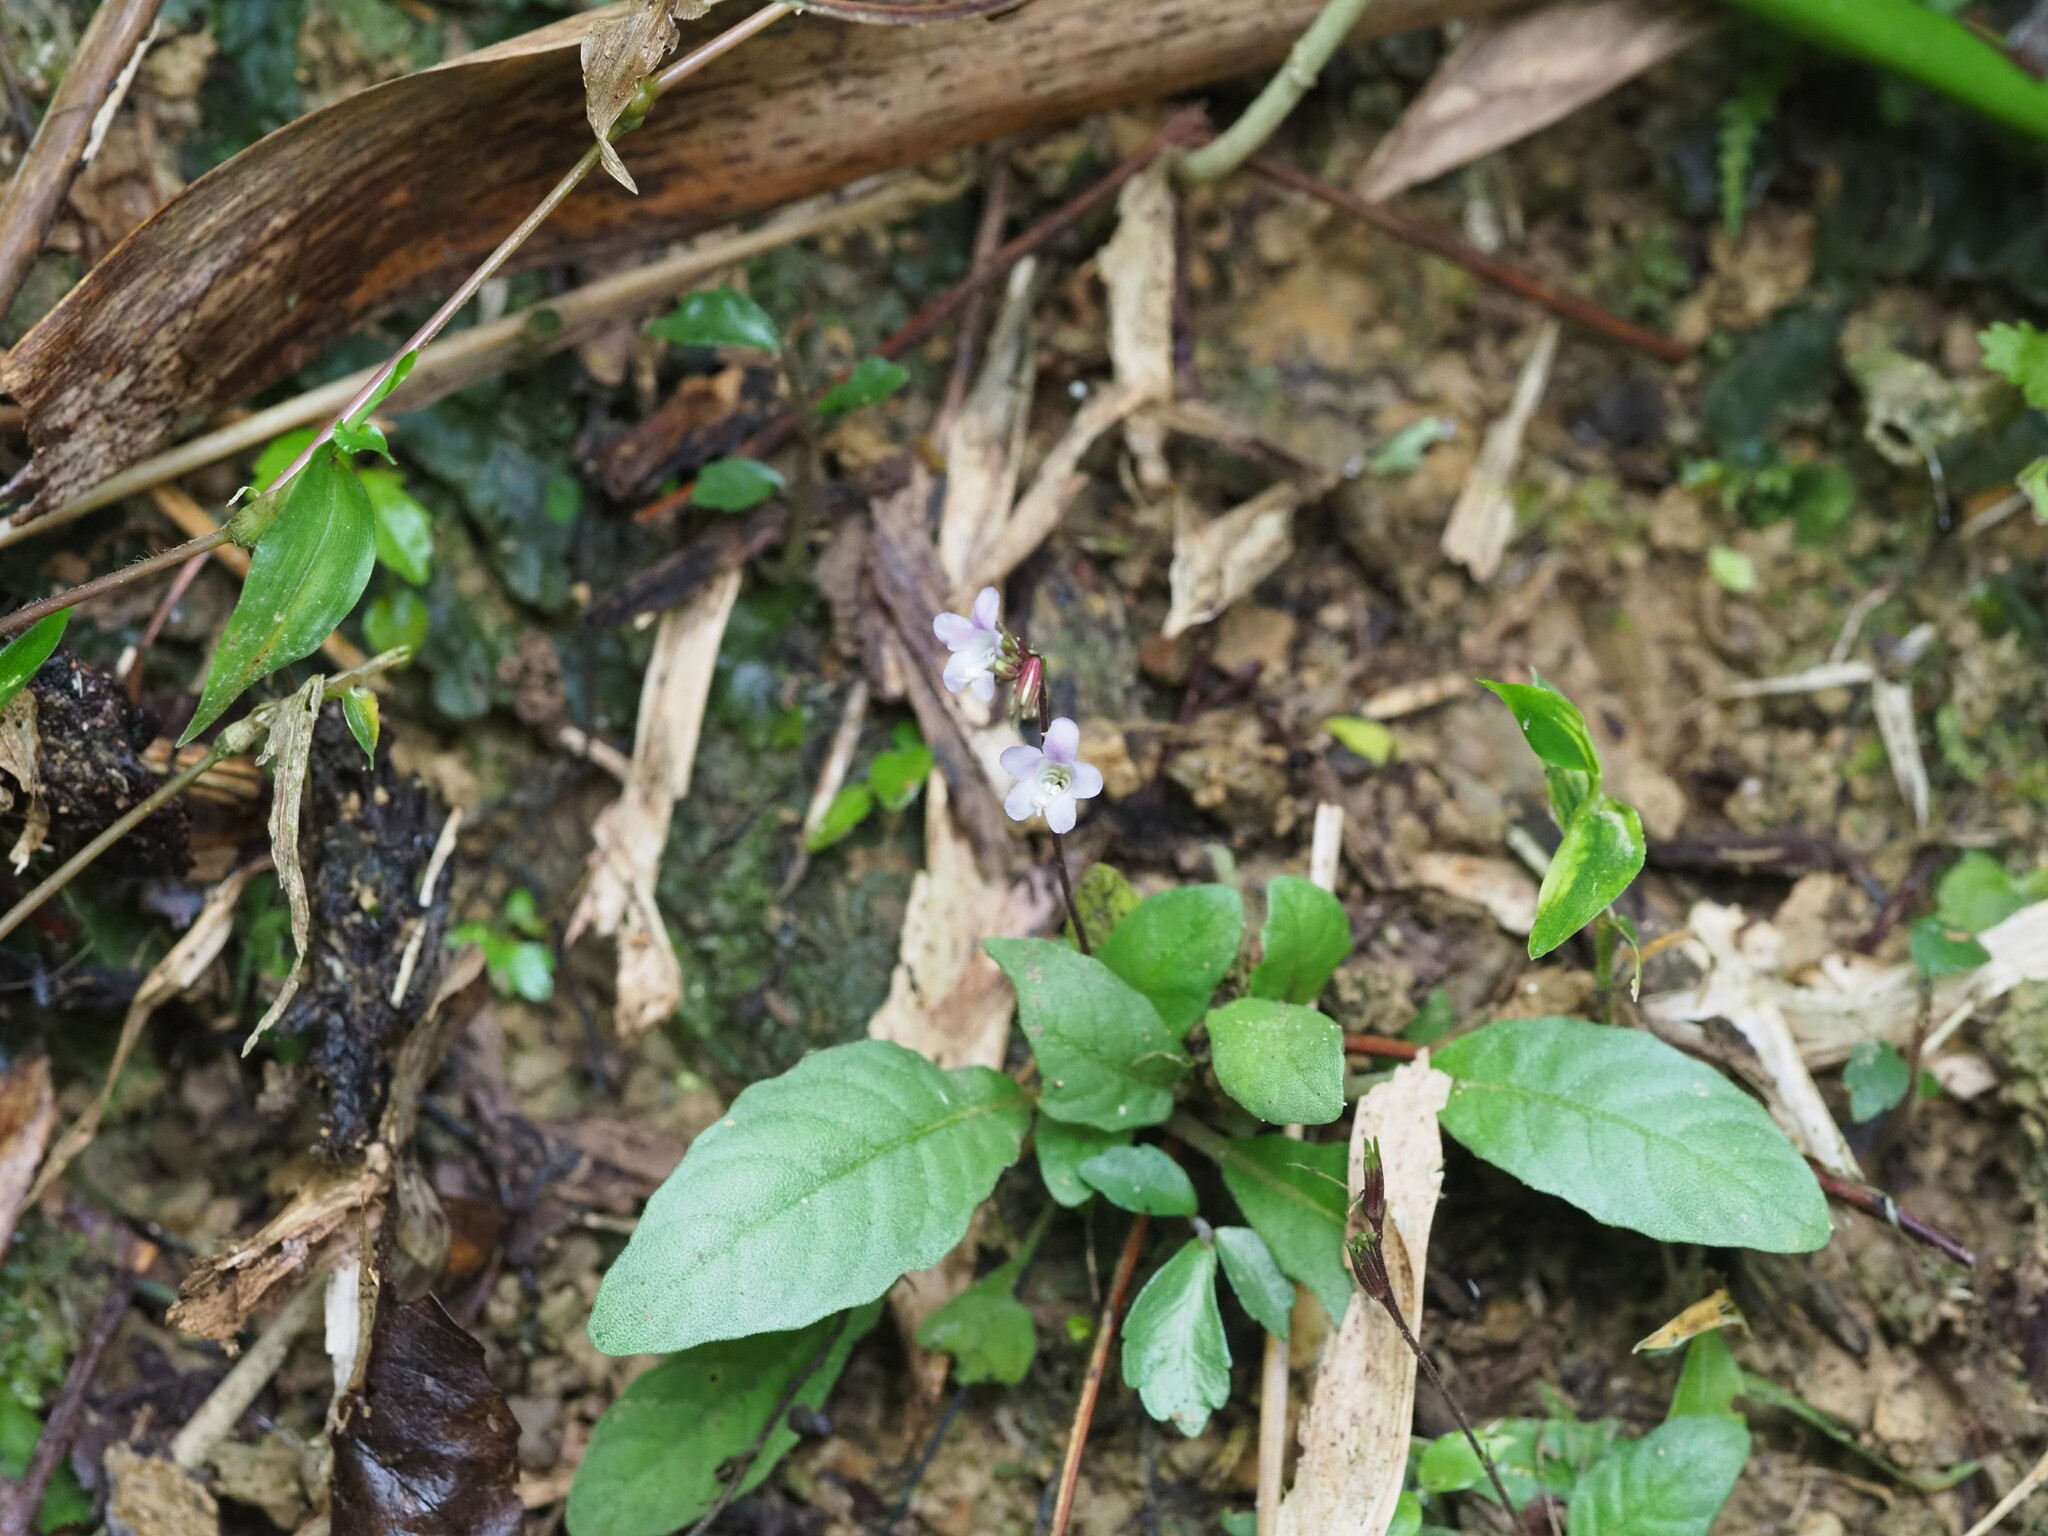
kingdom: Plantae
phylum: Tracheophyta
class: Magnoliopsida
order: Lamiales
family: Acanthaceae
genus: Staurogyne
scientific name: Staurogyne concinnula
